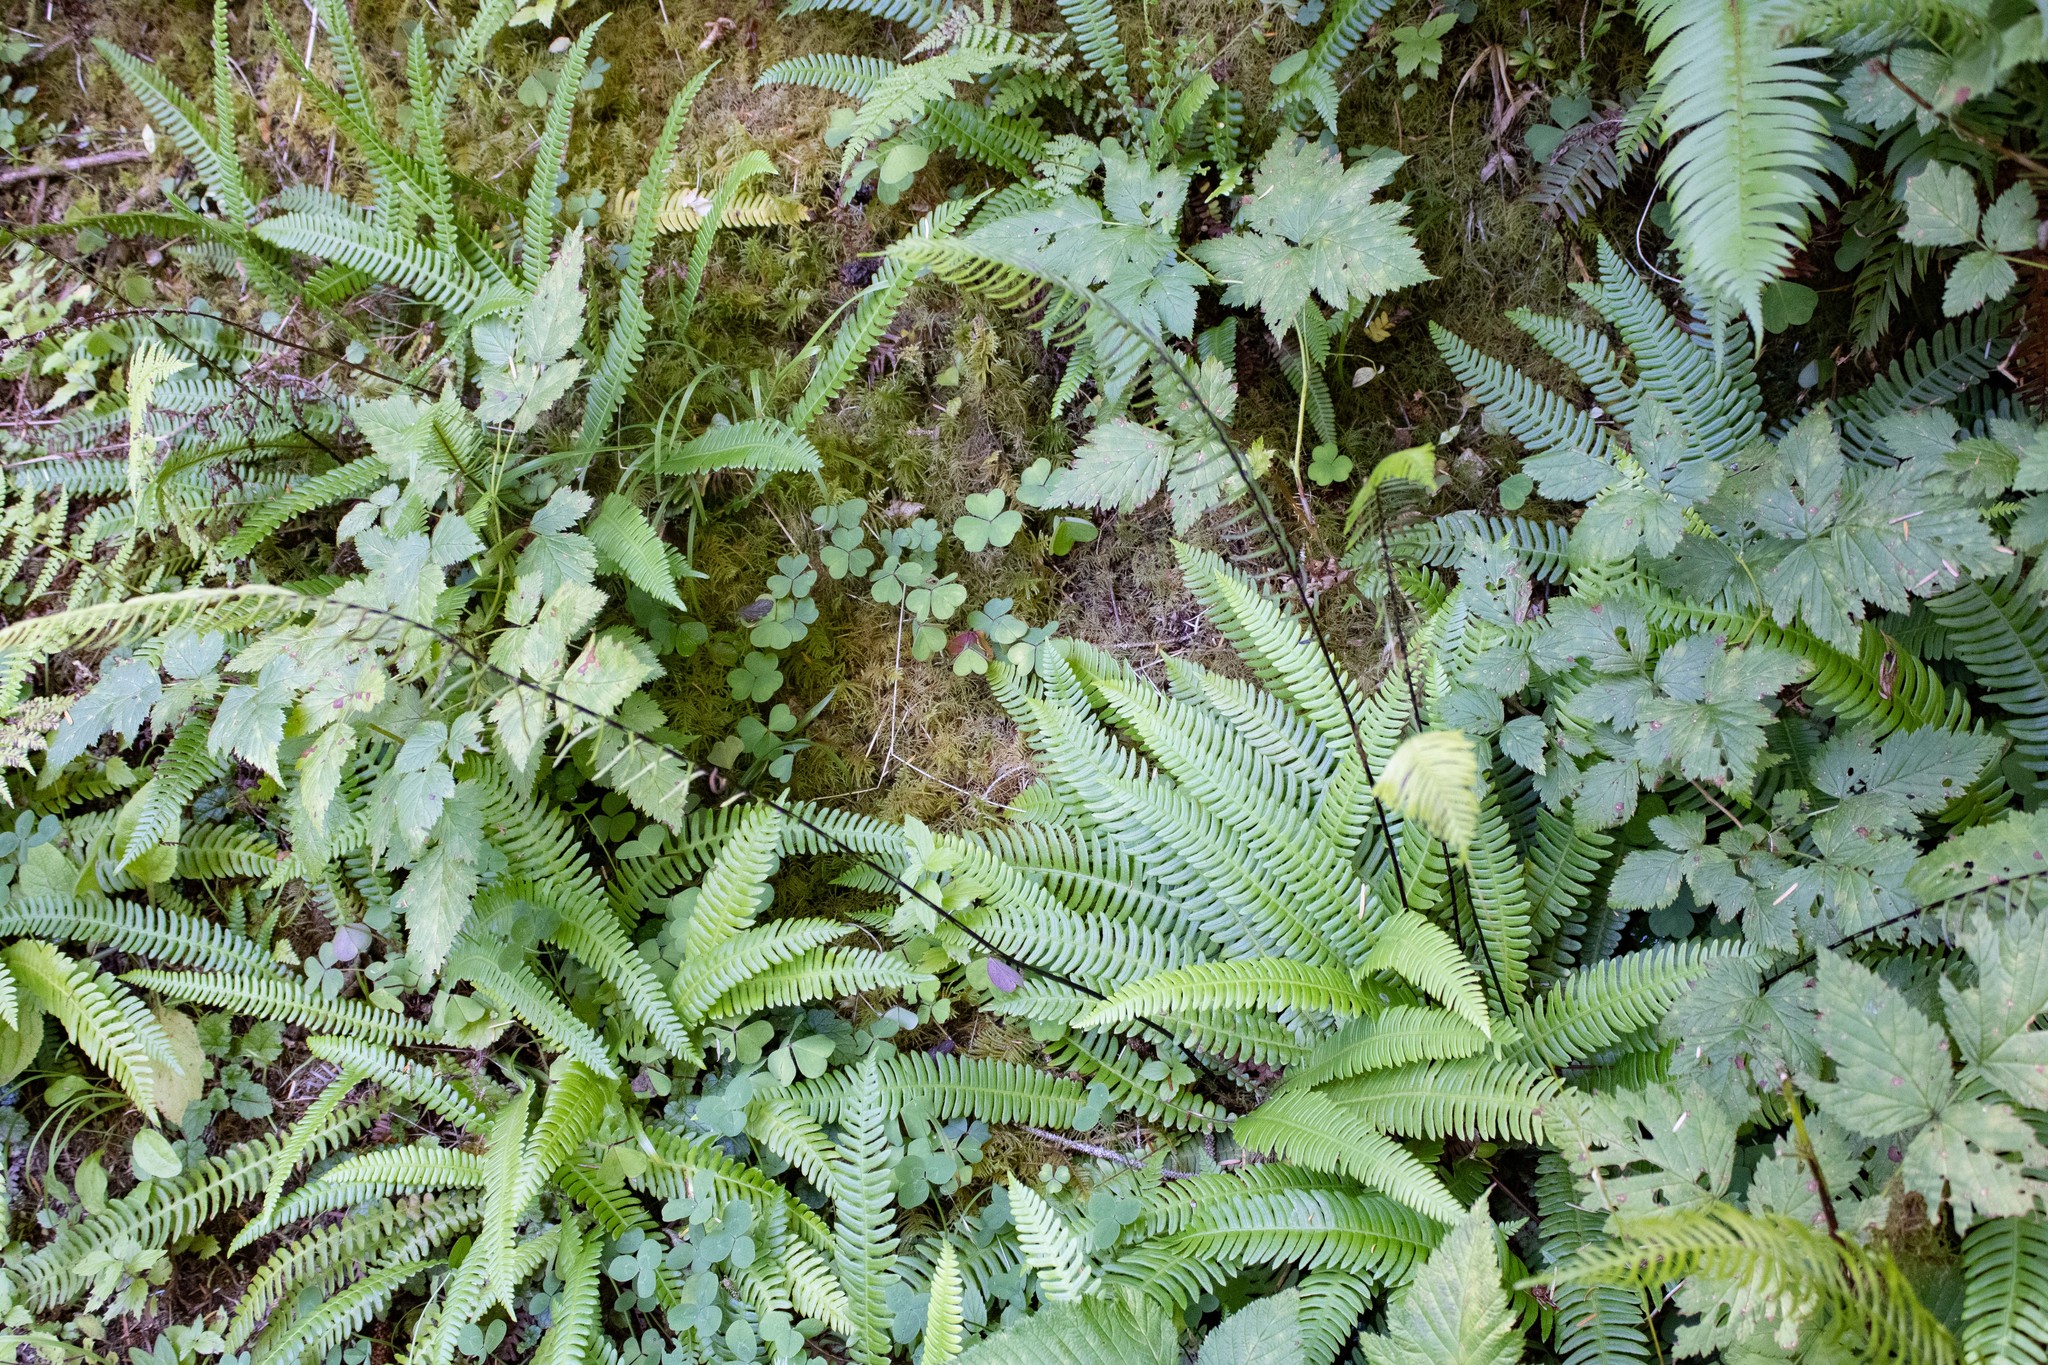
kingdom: Plantae
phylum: Tracheophyta
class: Polypodiopsida
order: Polypodiales
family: Blechnaceae
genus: Struthiopteris
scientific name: Struthiopteris spicant
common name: Deer fern
